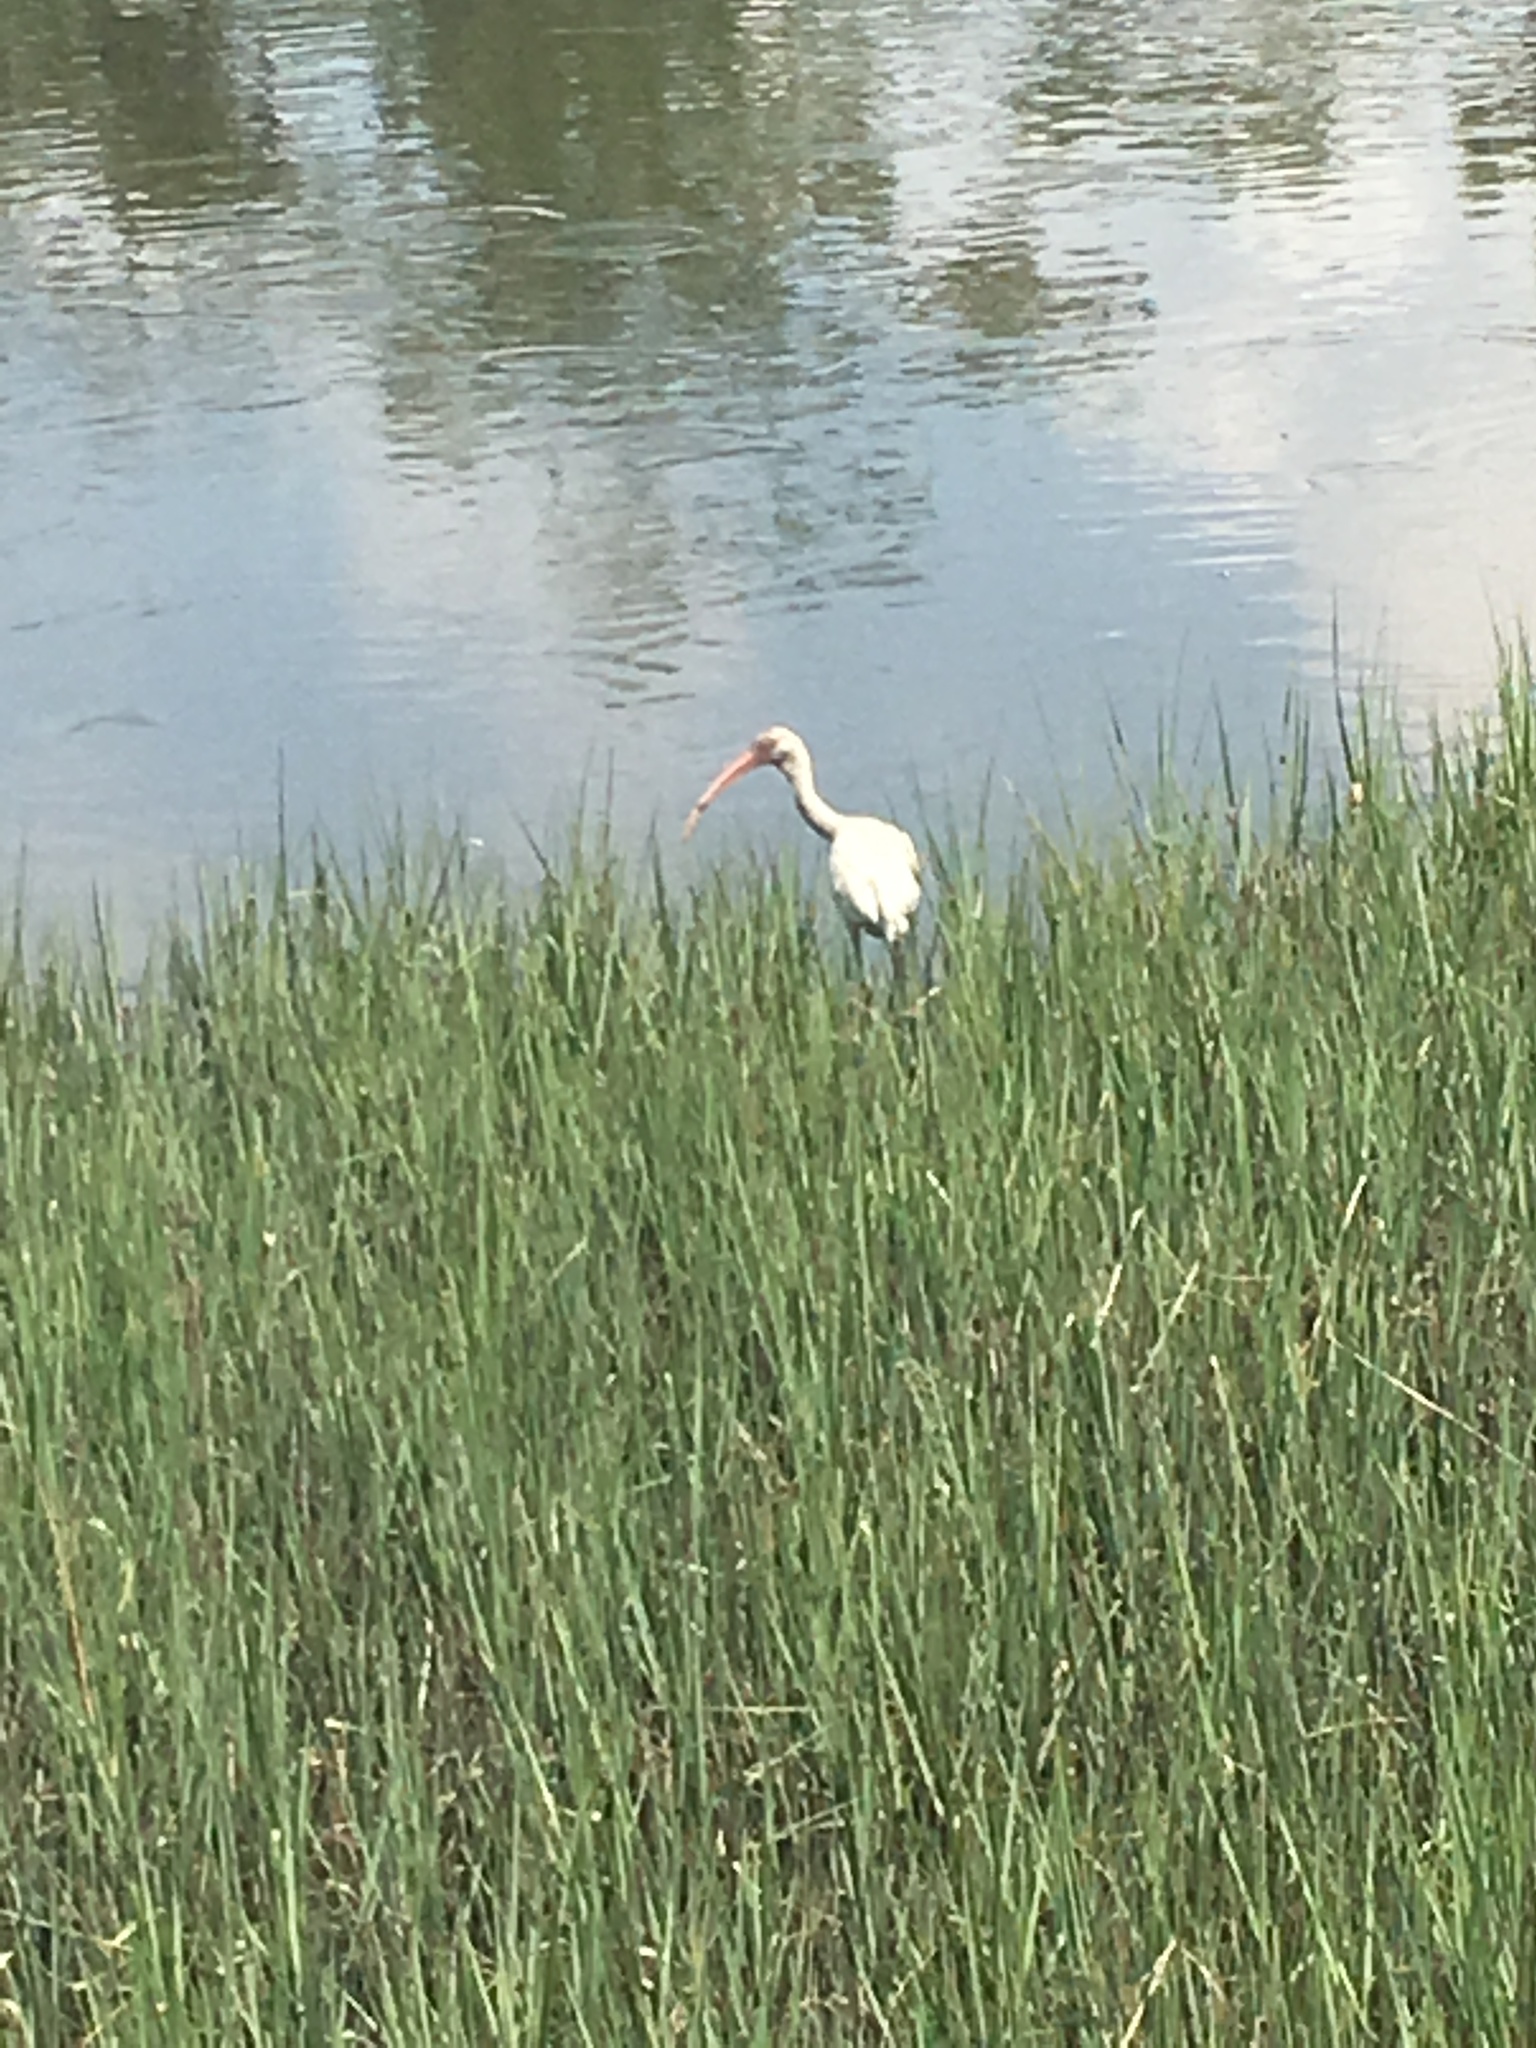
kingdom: Animalia
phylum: Chordata
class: Aves
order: Pelecaniformes
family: Threskiornithidae
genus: Eudocimus
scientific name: Eudocimus albus
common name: White ibis
